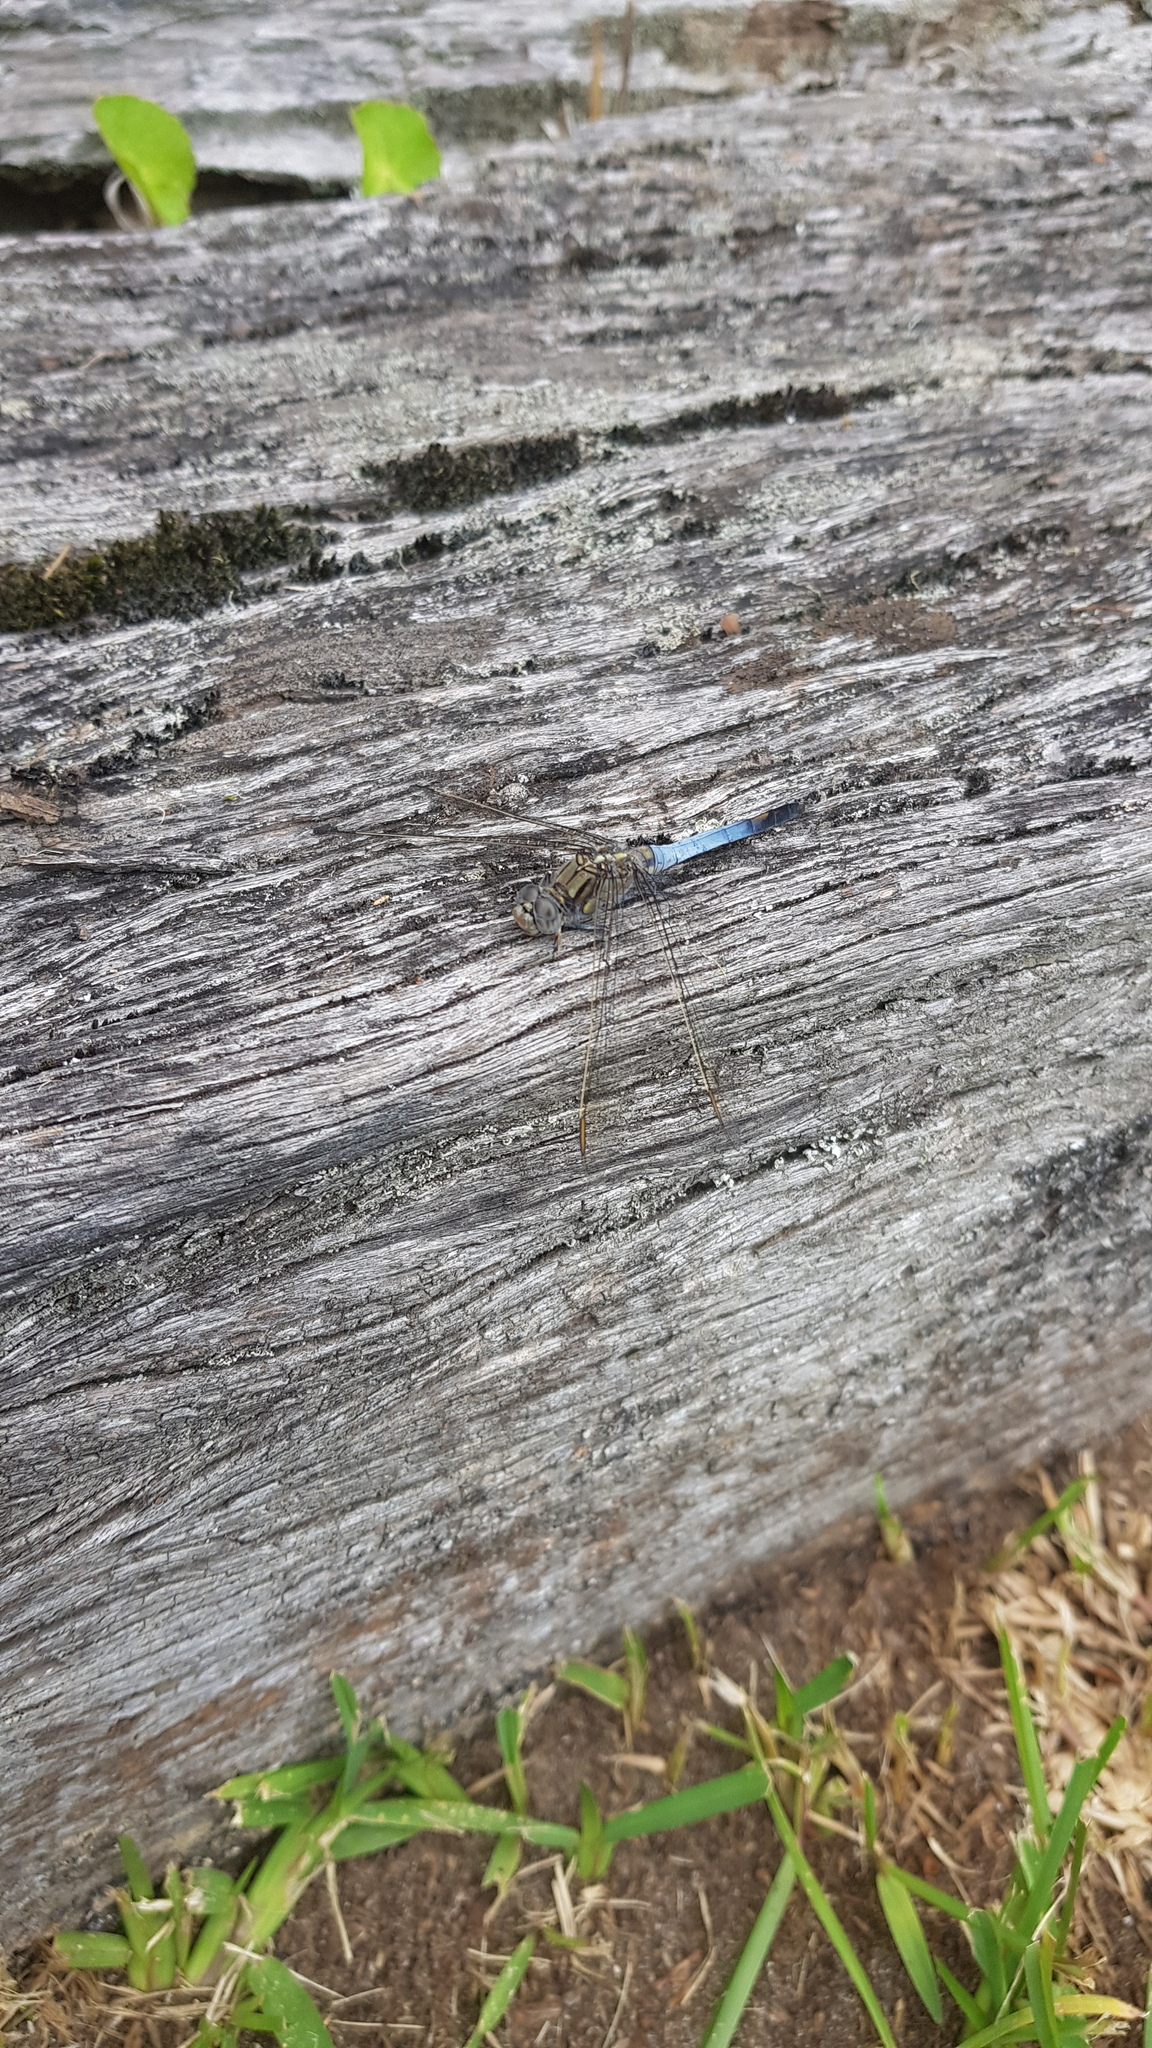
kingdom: Animalia
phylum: Arthropoda
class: Insecta
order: Odonata
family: Libellulidae
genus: Orthetrum
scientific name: Orthetrum caledonicum
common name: Blue skimmer
